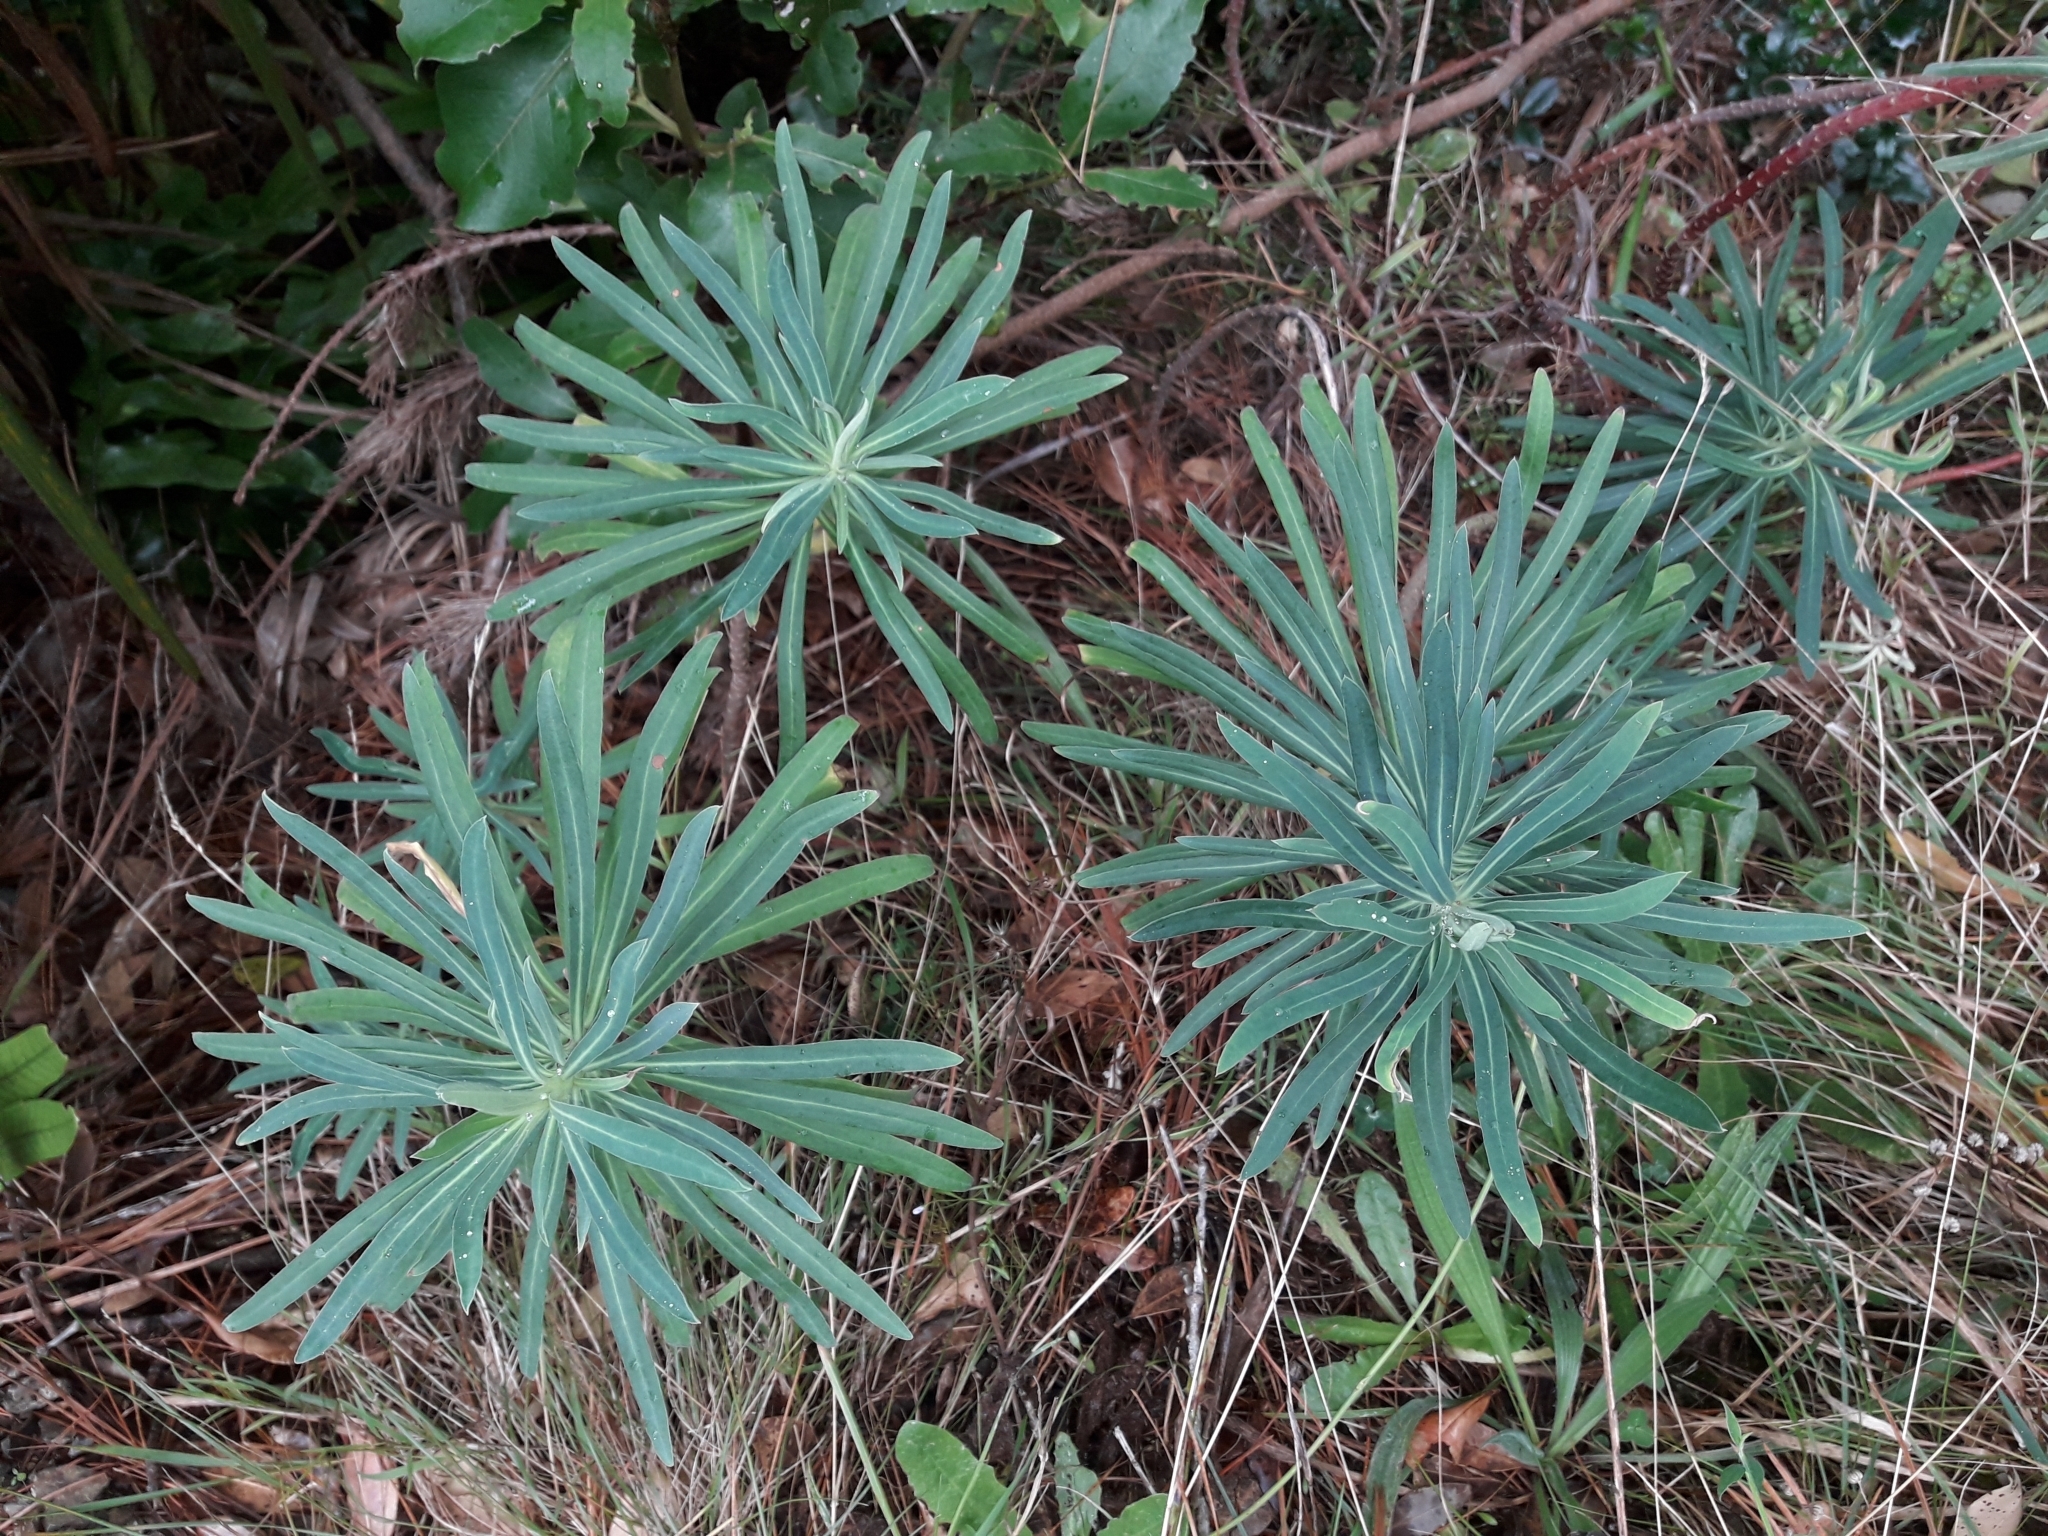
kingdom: Plantae
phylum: Tracheophyta
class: Magnoliopsida
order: Malpighiales
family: Euphorbiaceae
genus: Euphorbia
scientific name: Euphorbia lathyris
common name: Caper spurge
